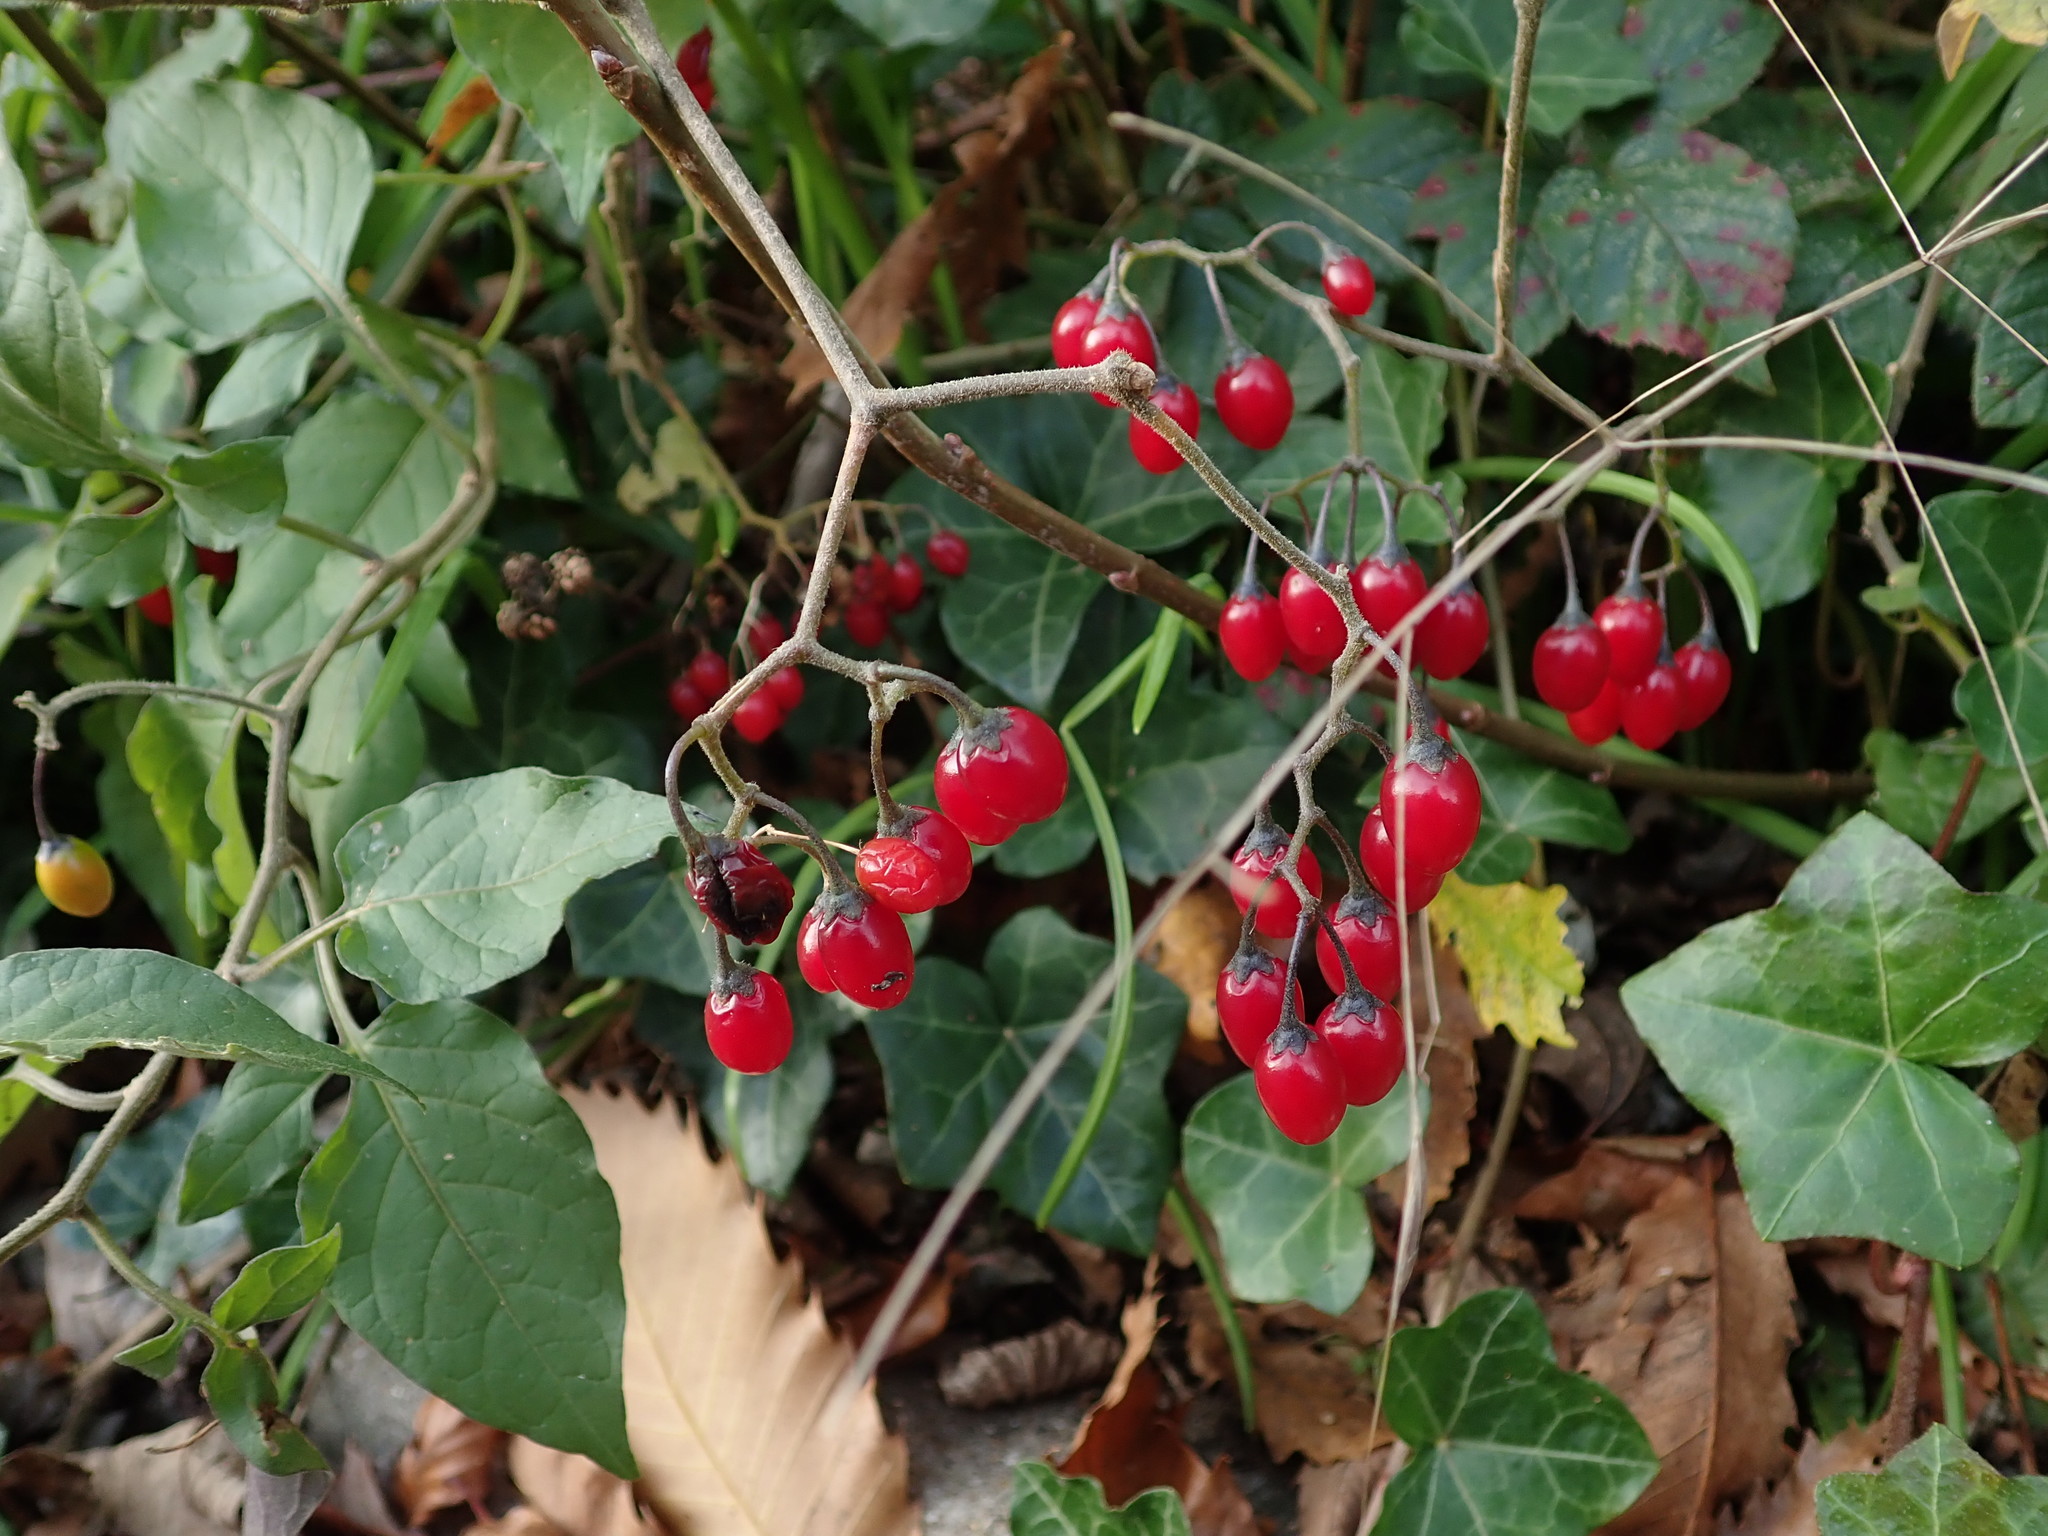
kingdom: Plantae
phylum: Tracheophyta
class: Magnoliopsida
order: Solanales
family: Solanaceae
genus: Solanum
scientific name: Solanum dulcamara
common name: Climbing nightshade
